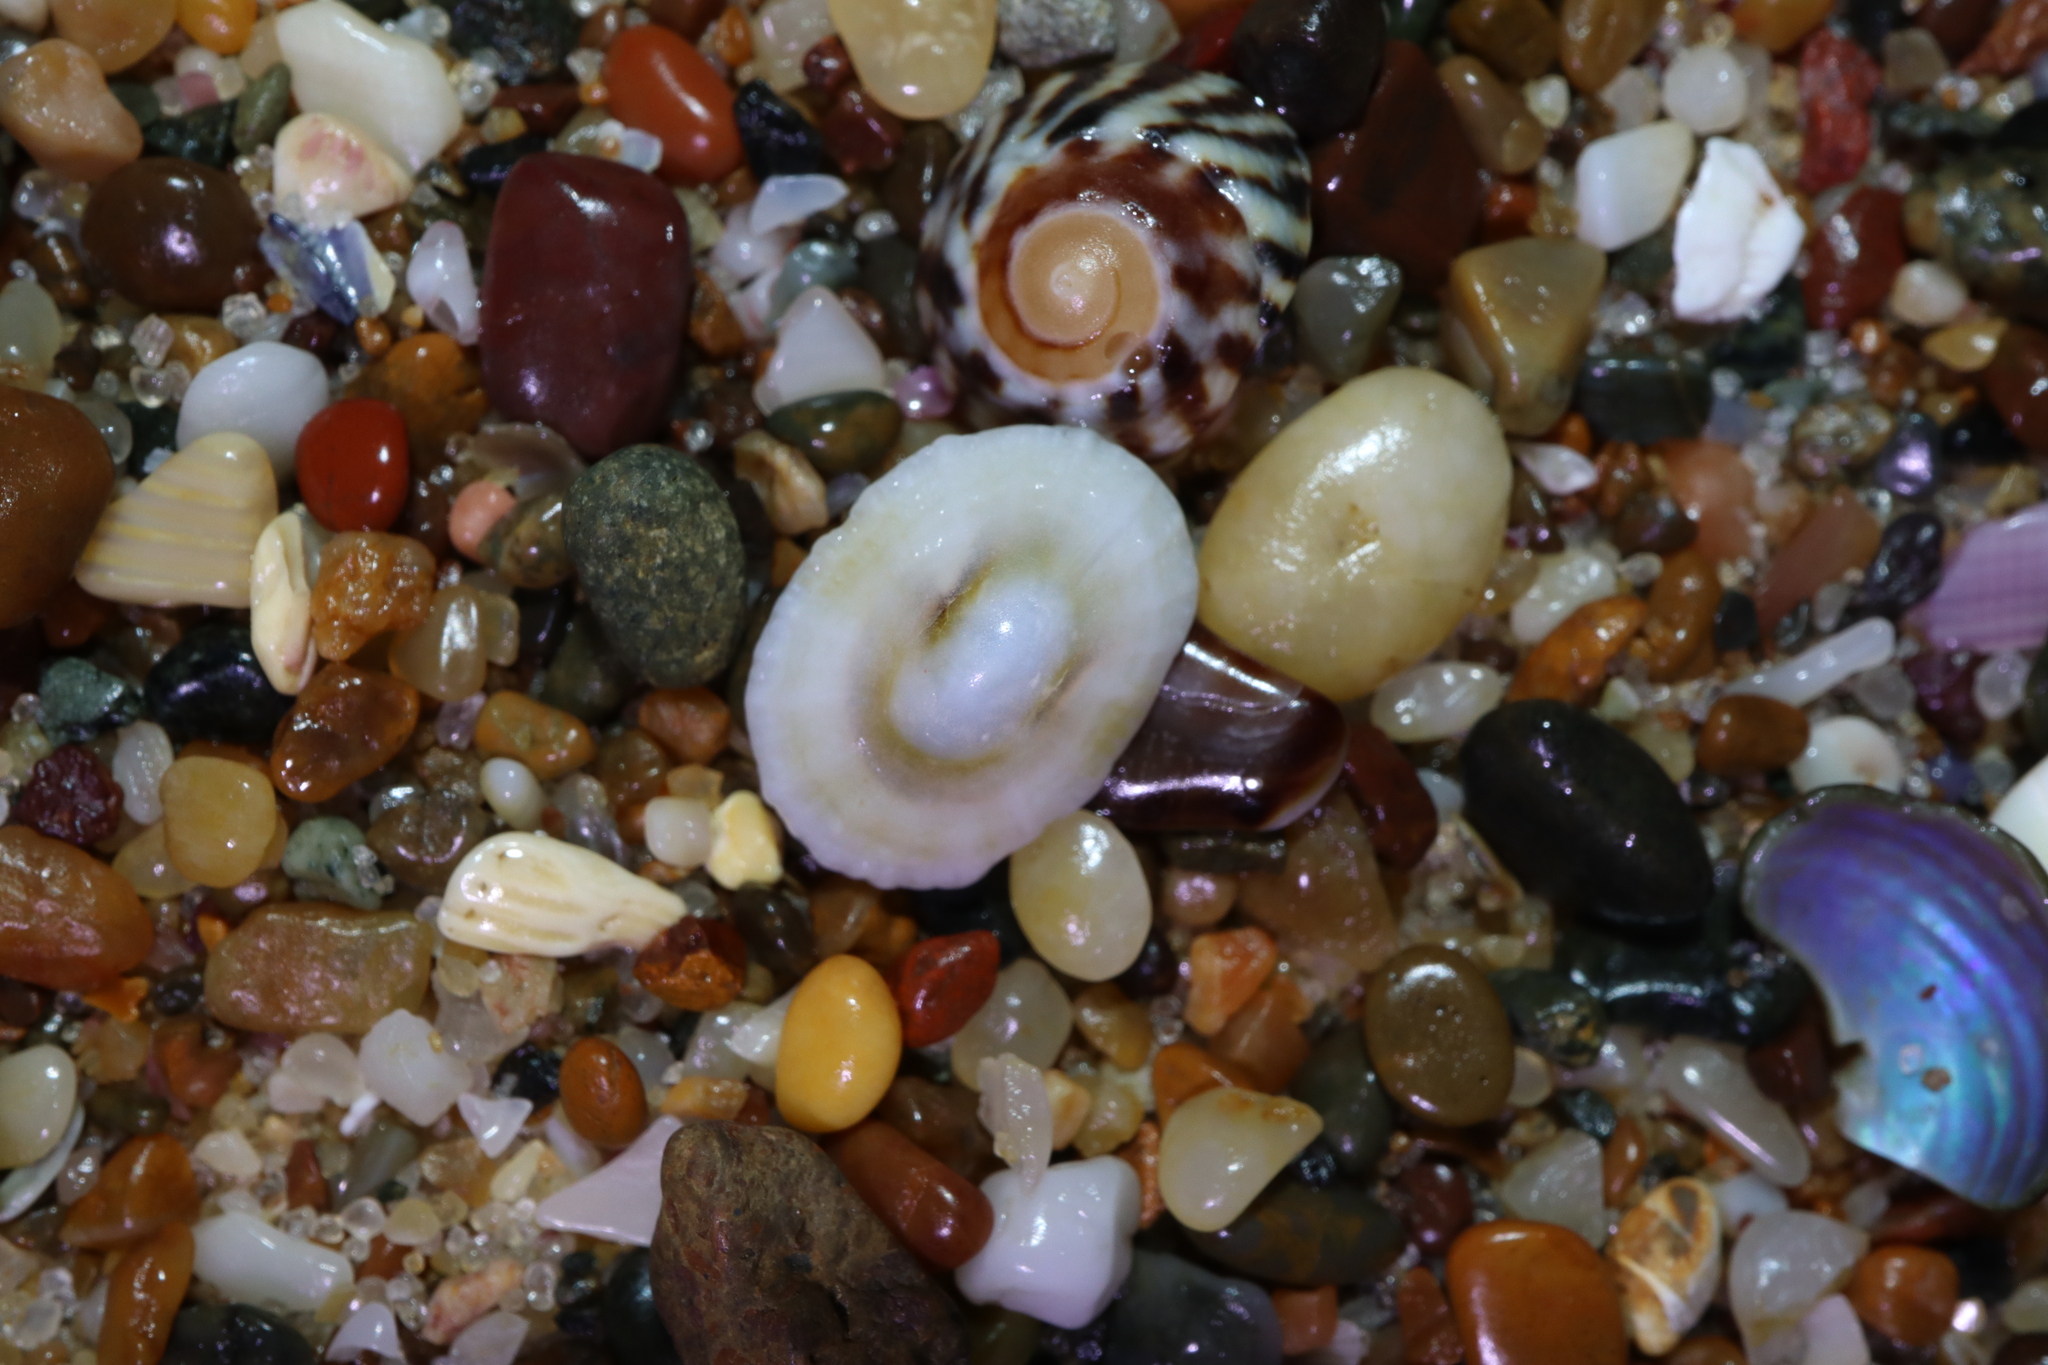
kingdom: Animalia
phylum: Mollusca
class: Gastropoda
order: Lepetellida
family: Fissurellidae
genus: Montfortula
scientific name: Montfortula rugosa
